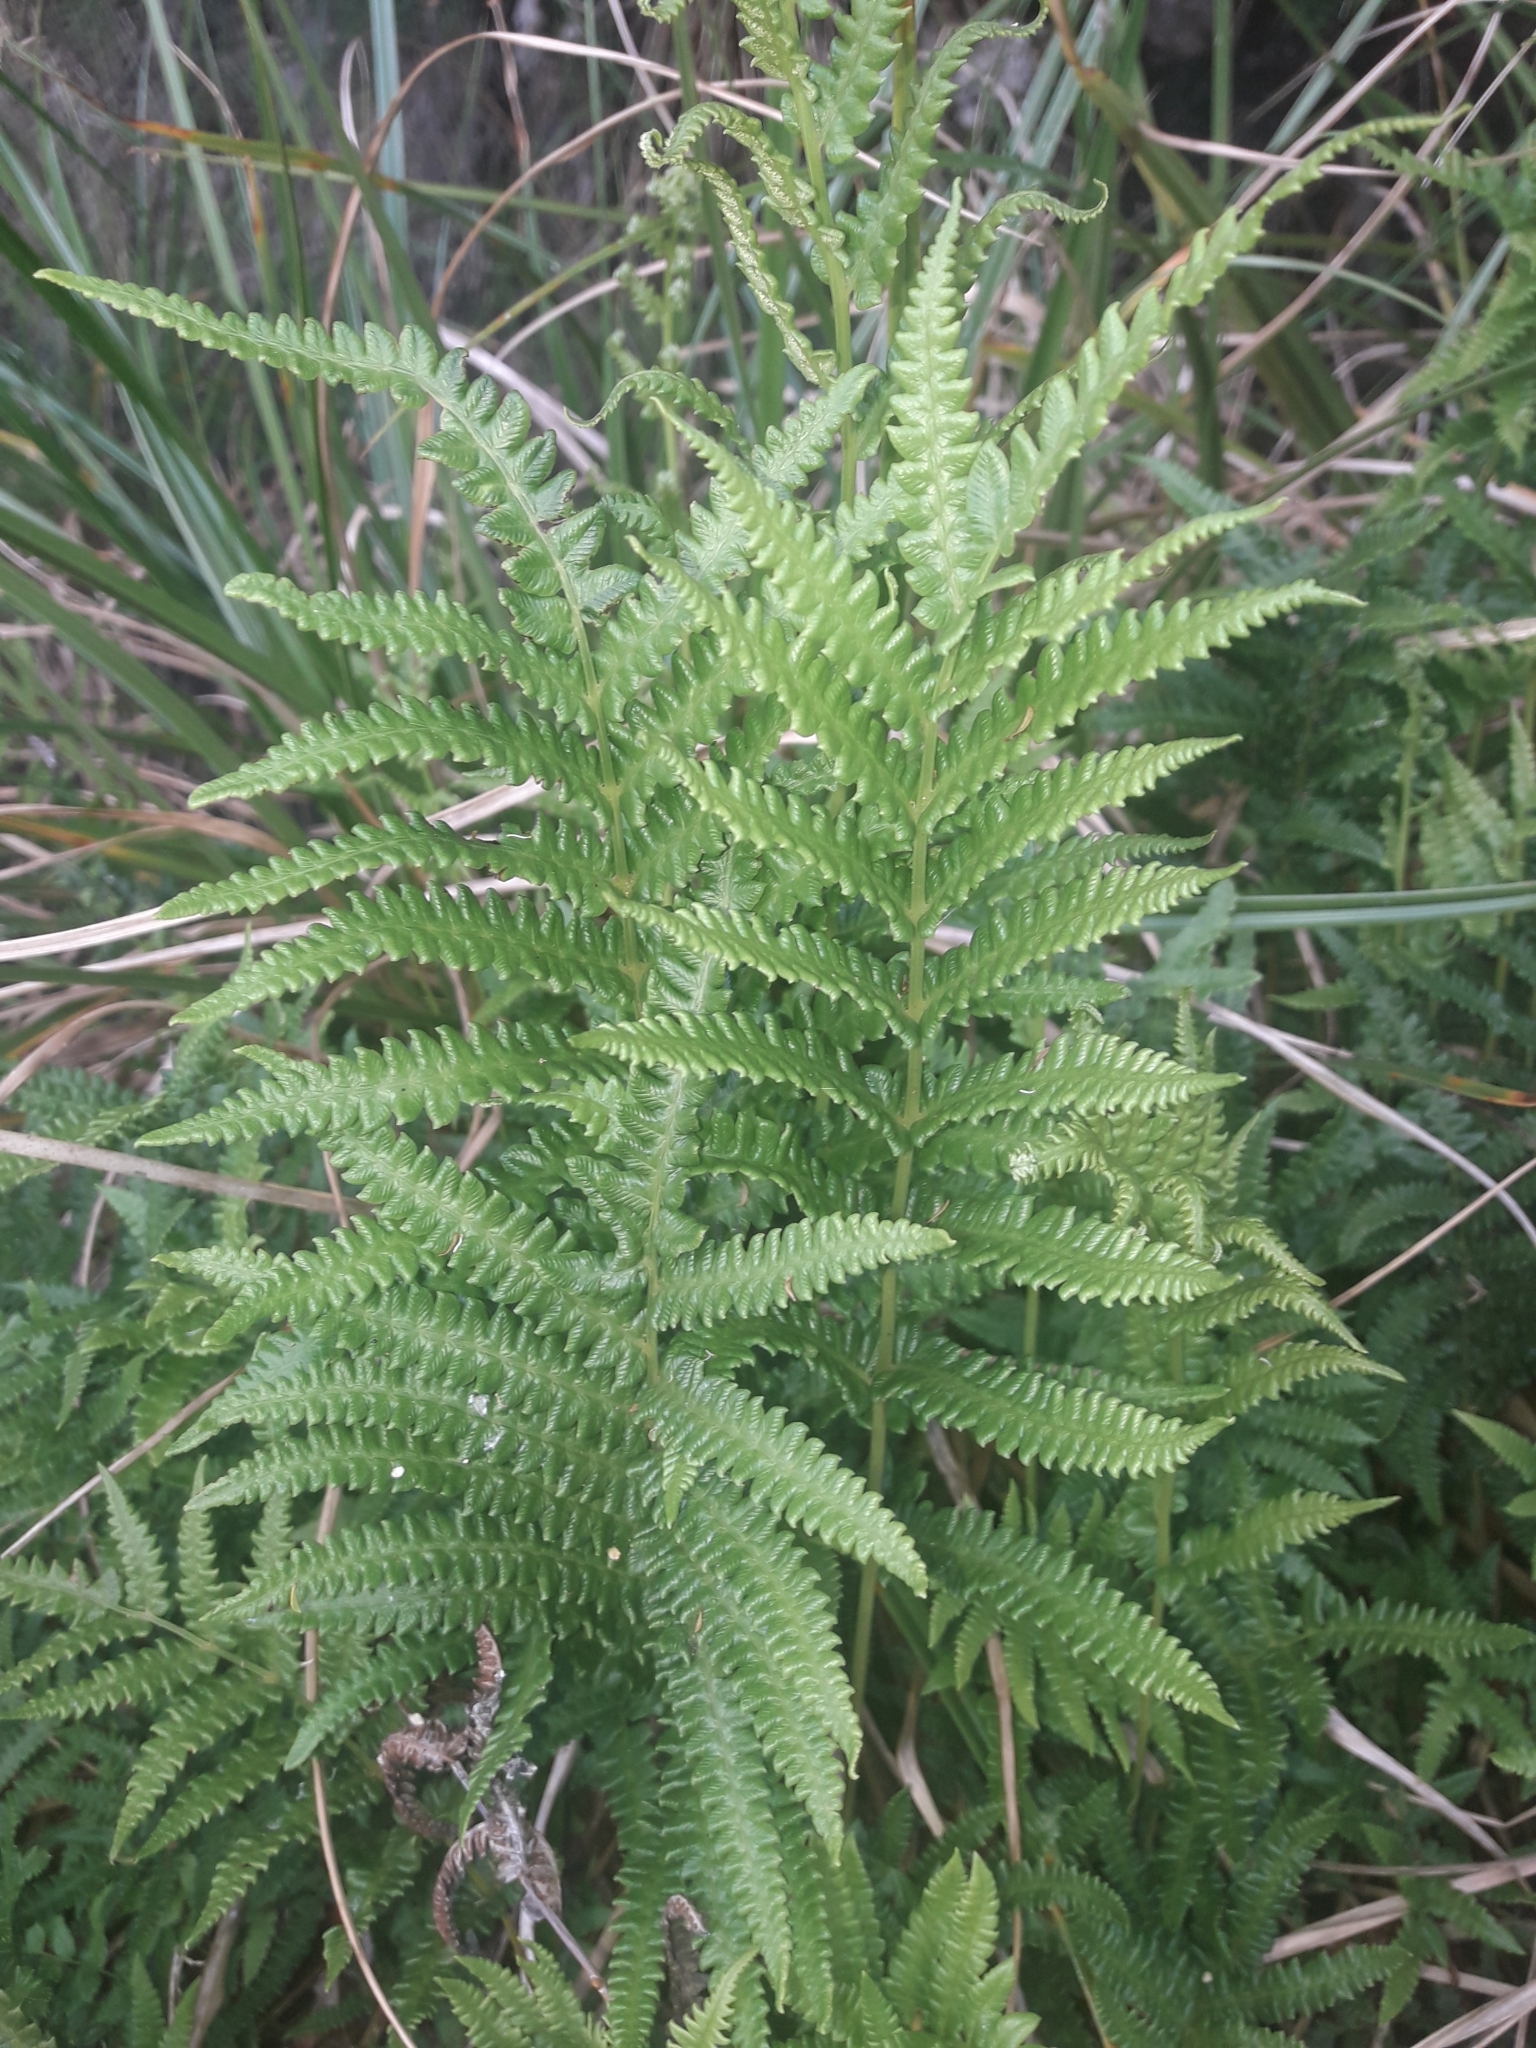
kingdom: Plantae
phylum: Tracheophyta
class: Polypodiopsida
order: Polypodiales
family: Thelypteridaceae
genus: Cyclosorus
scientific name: Cyclosorus interruptus
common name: Neke fern
